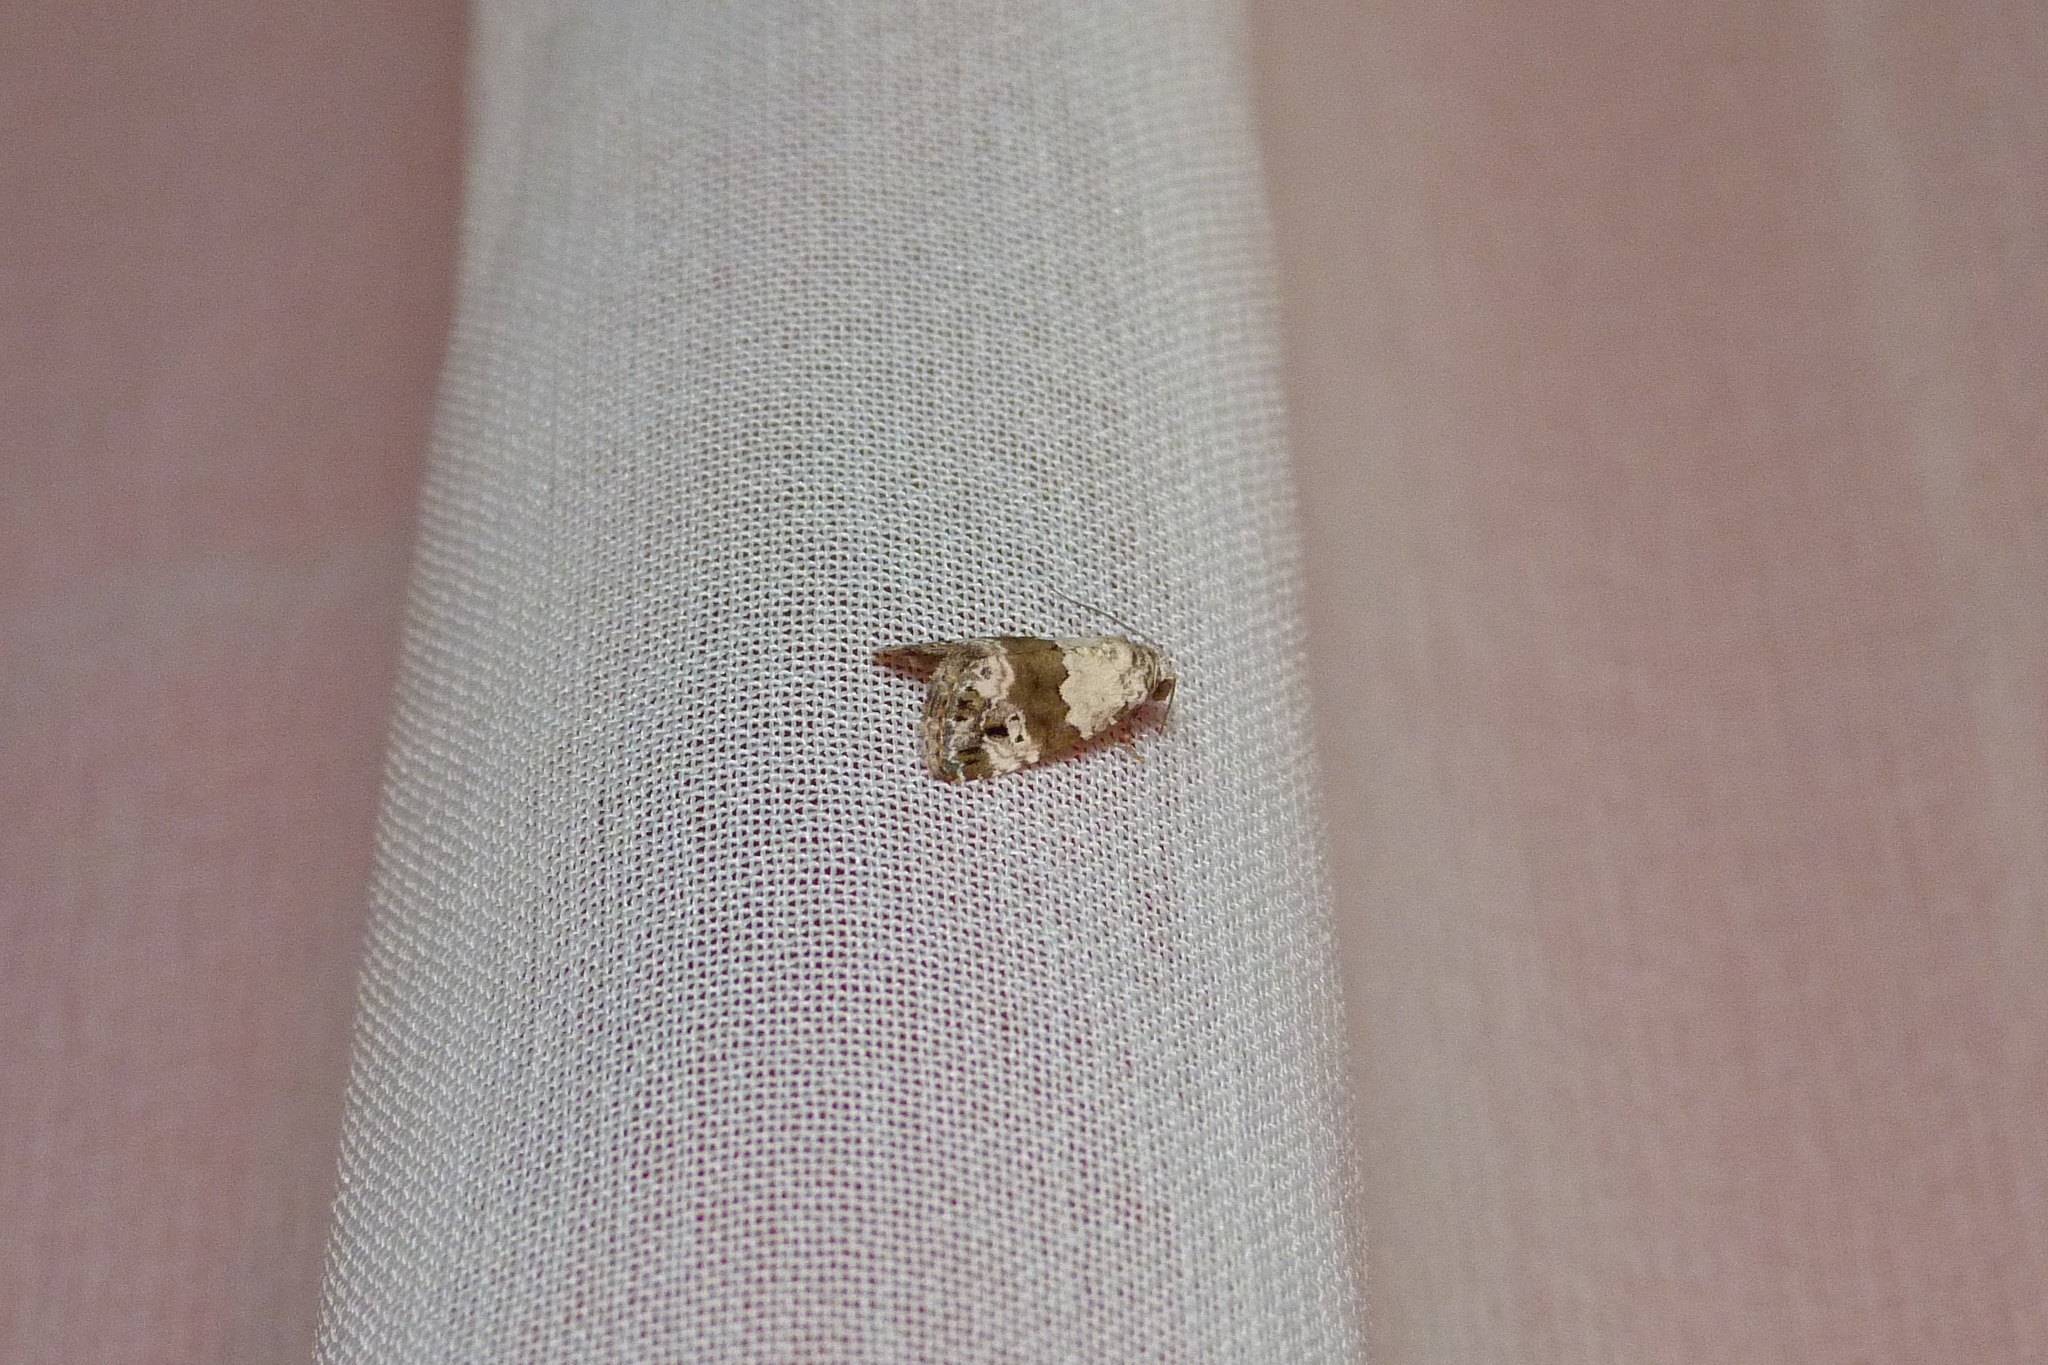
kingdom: Animalia
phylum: Arthropoda
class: Insecta
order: Lepidoptera
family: Noctuidae
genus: Maliattha
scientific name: Maliattha signifera
